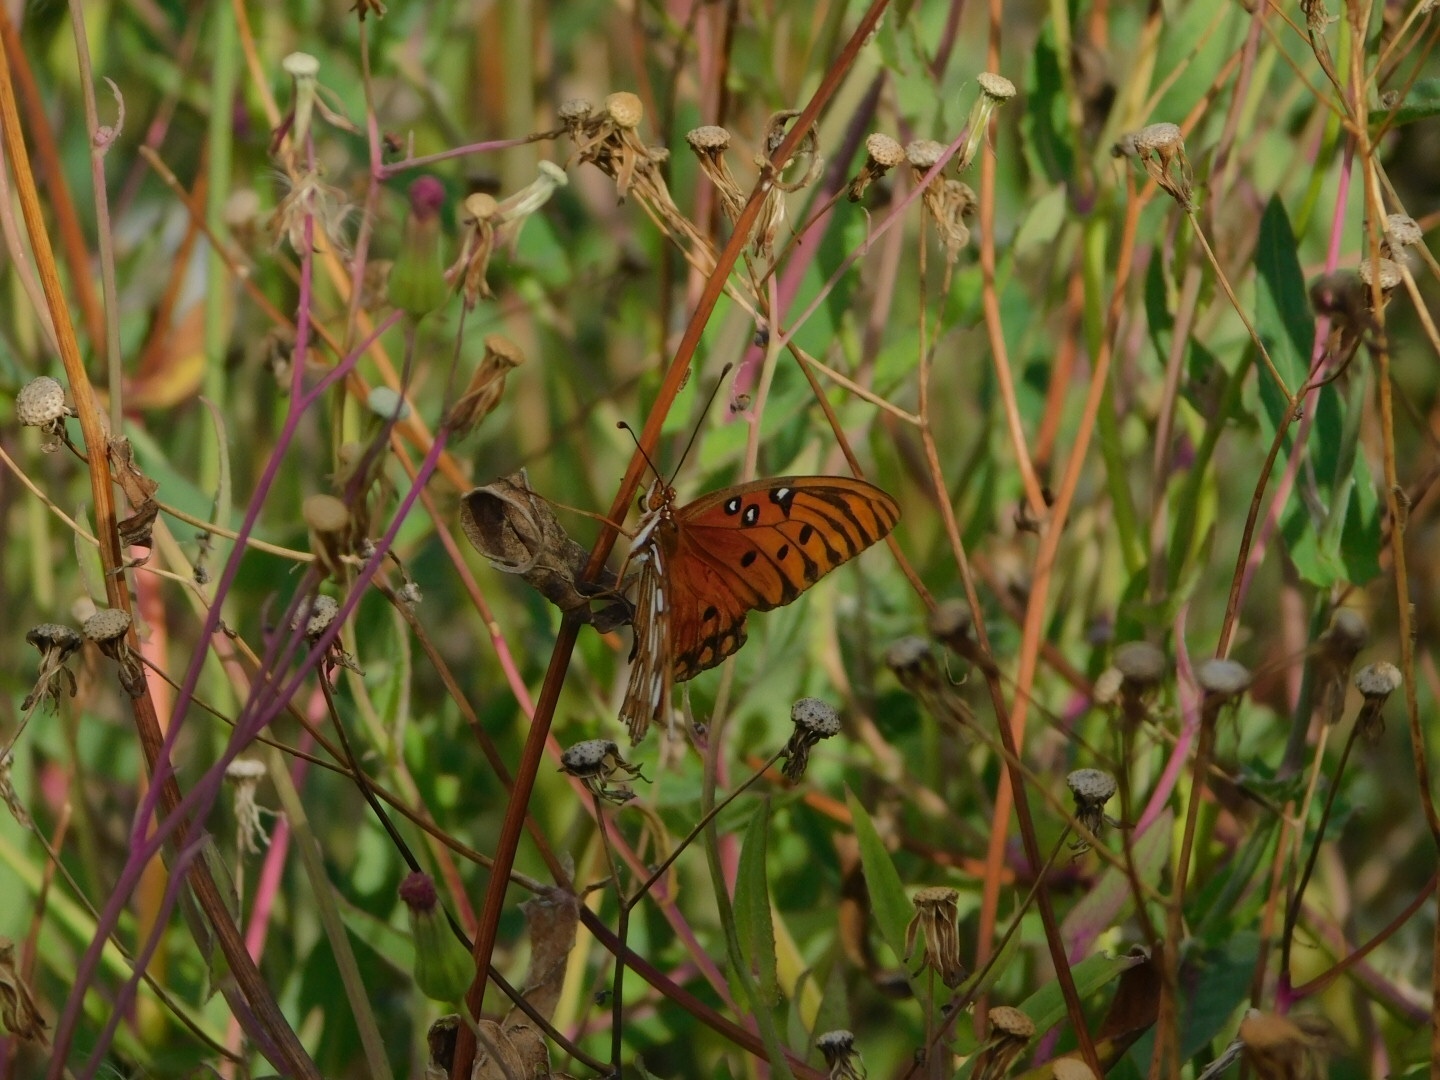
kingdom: Animalia
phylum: Arthropoda
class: Insecta
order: Lepidoptera
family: Nymphalidae
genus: Dione
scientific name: Dione vanillae
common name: Gulf fritillary
